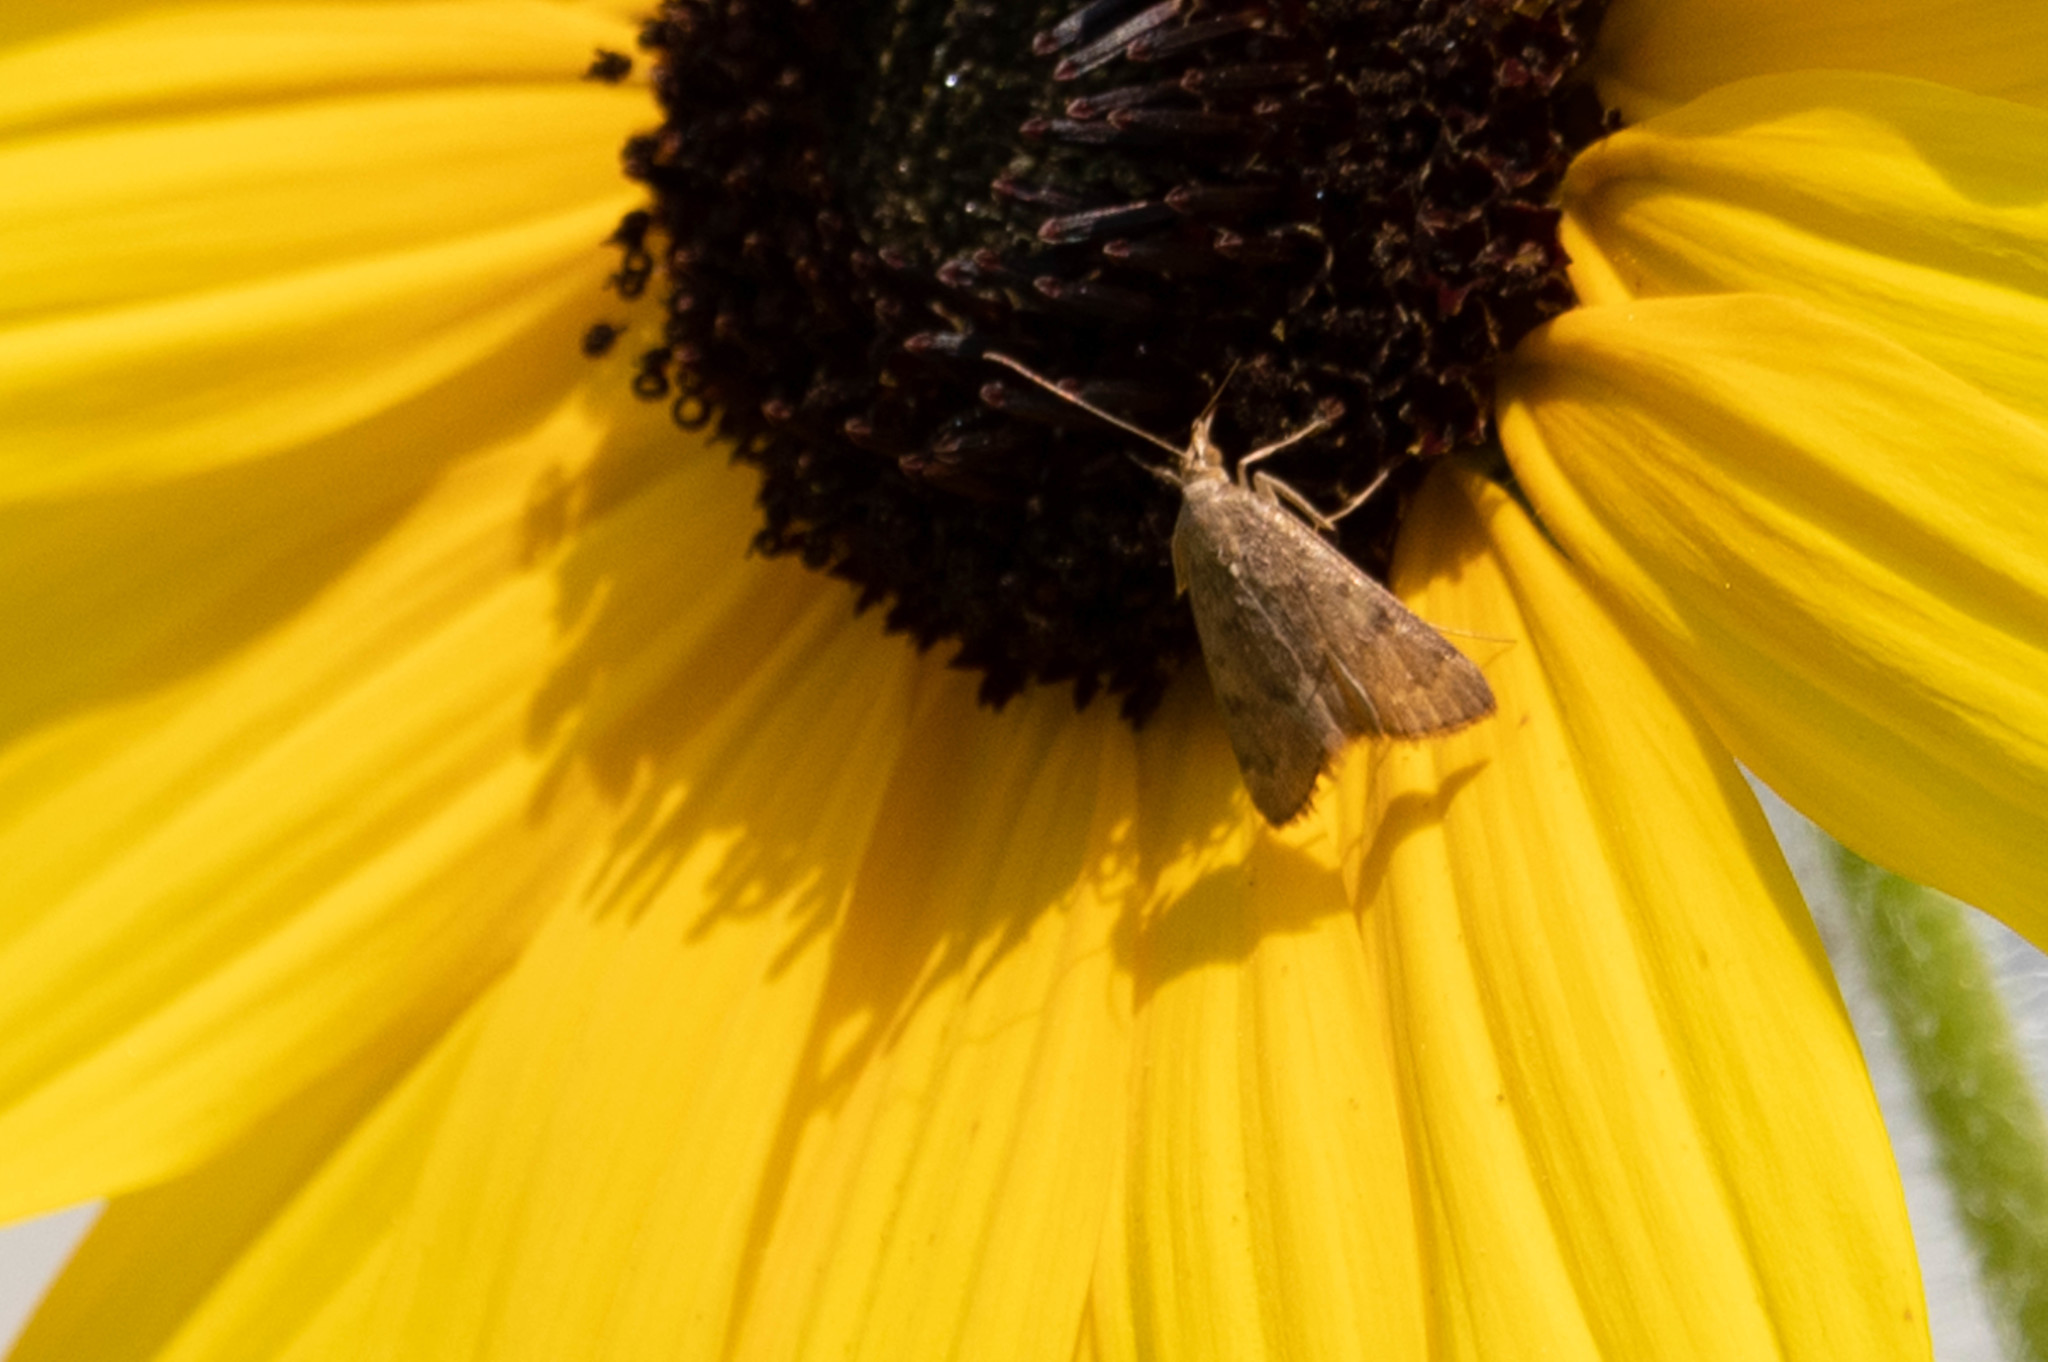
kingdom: Animalia
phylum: Arthropoda
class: Insecta
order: Lepidoptera
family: Crambidae
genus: Achyra
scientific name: Achyra rantalis
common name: Garden webworm
